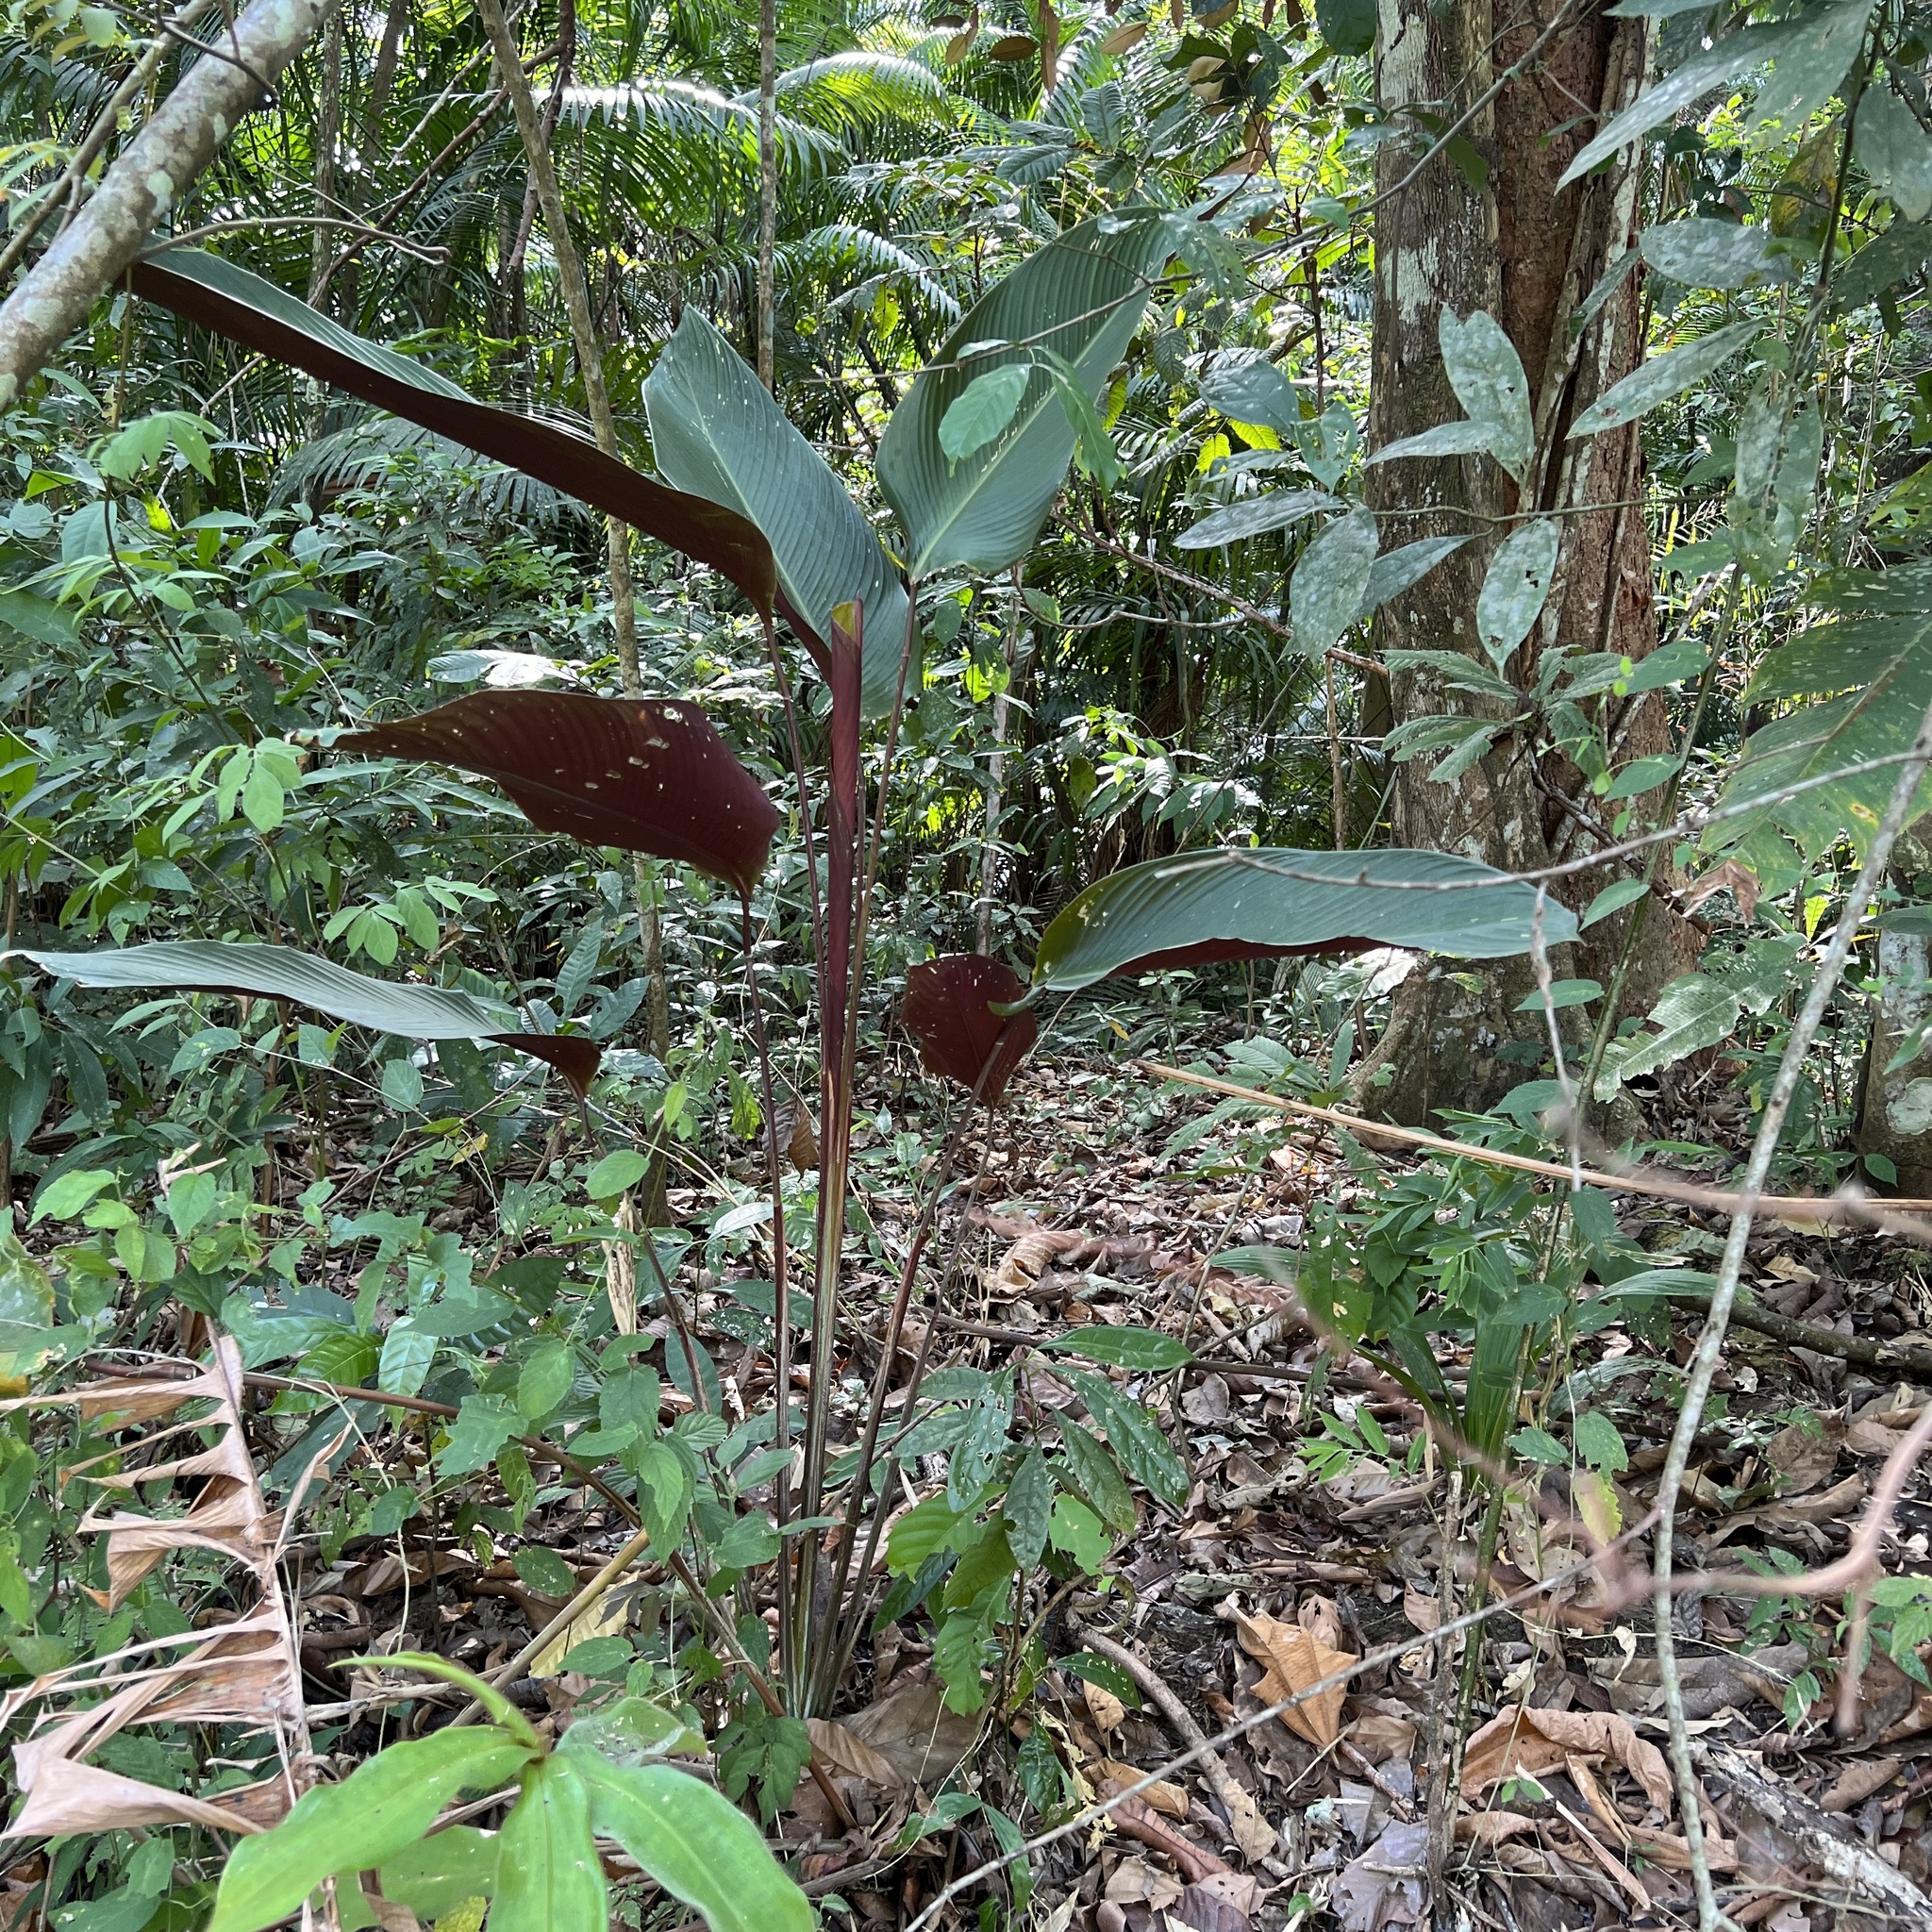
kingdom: Plantae
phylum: Tracheophyta
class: Liliopsida
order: Zingiberales
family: Marantaceae
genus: Calathea
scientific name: Calathea crotalifera
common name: Rattlesnake plant
